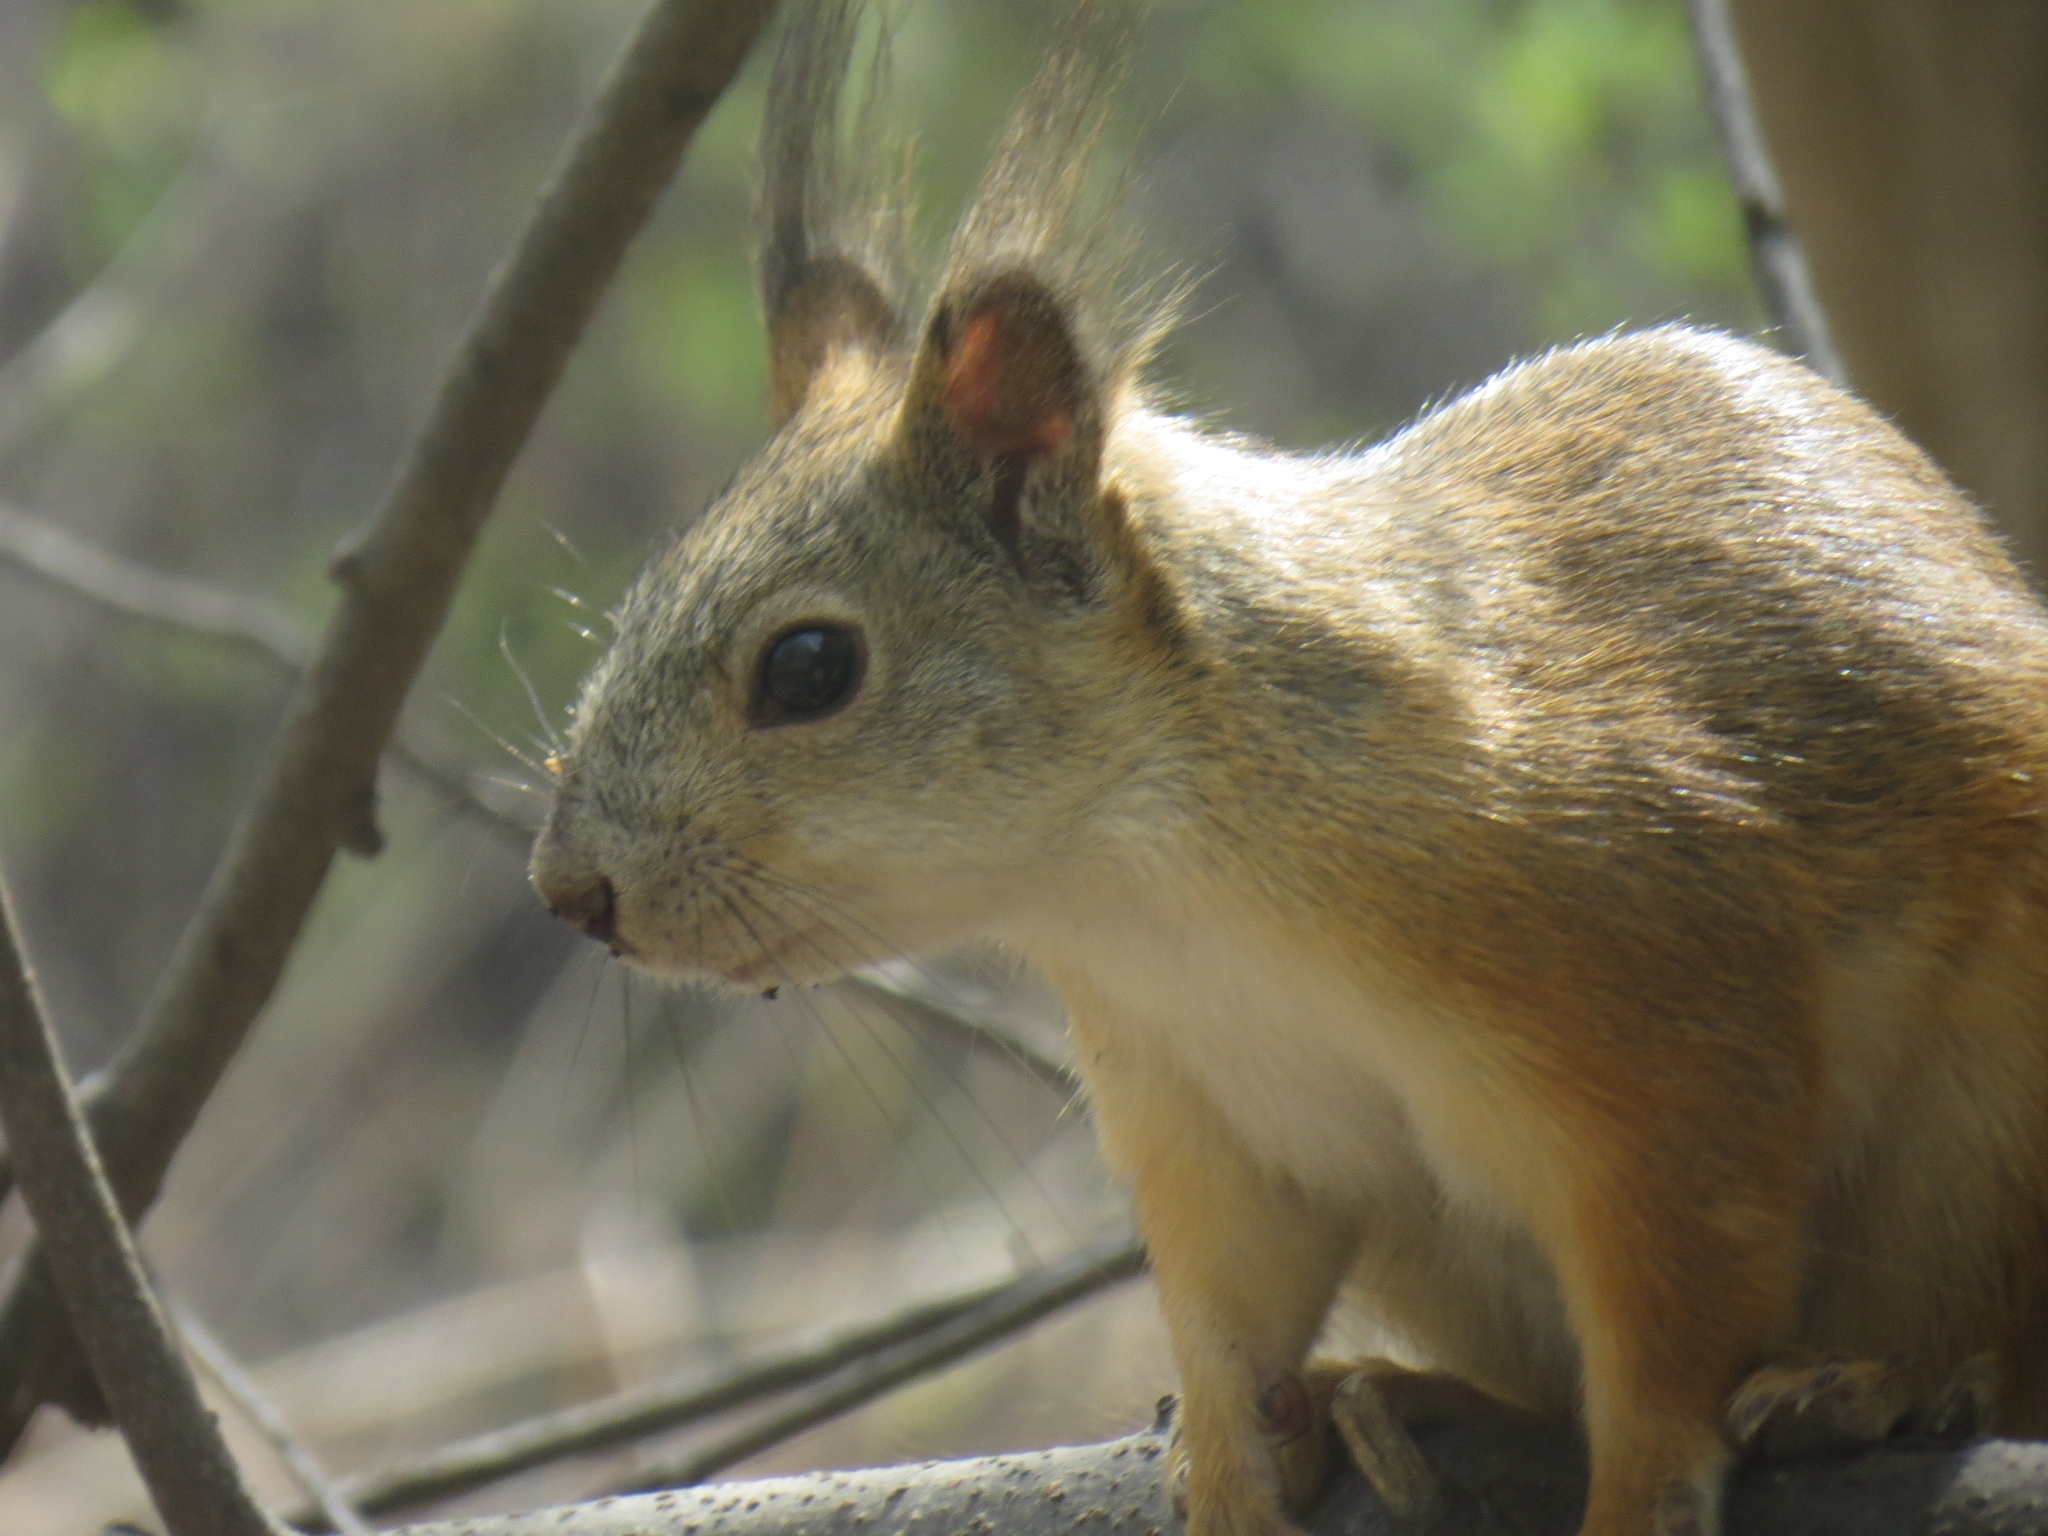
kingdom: Animalia
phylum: Chordata
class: Mammalia
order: Rodentia
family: Sciuridae
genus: Sciurus
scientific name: Sciurus vulgaris
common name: Eurasian red squirrel
